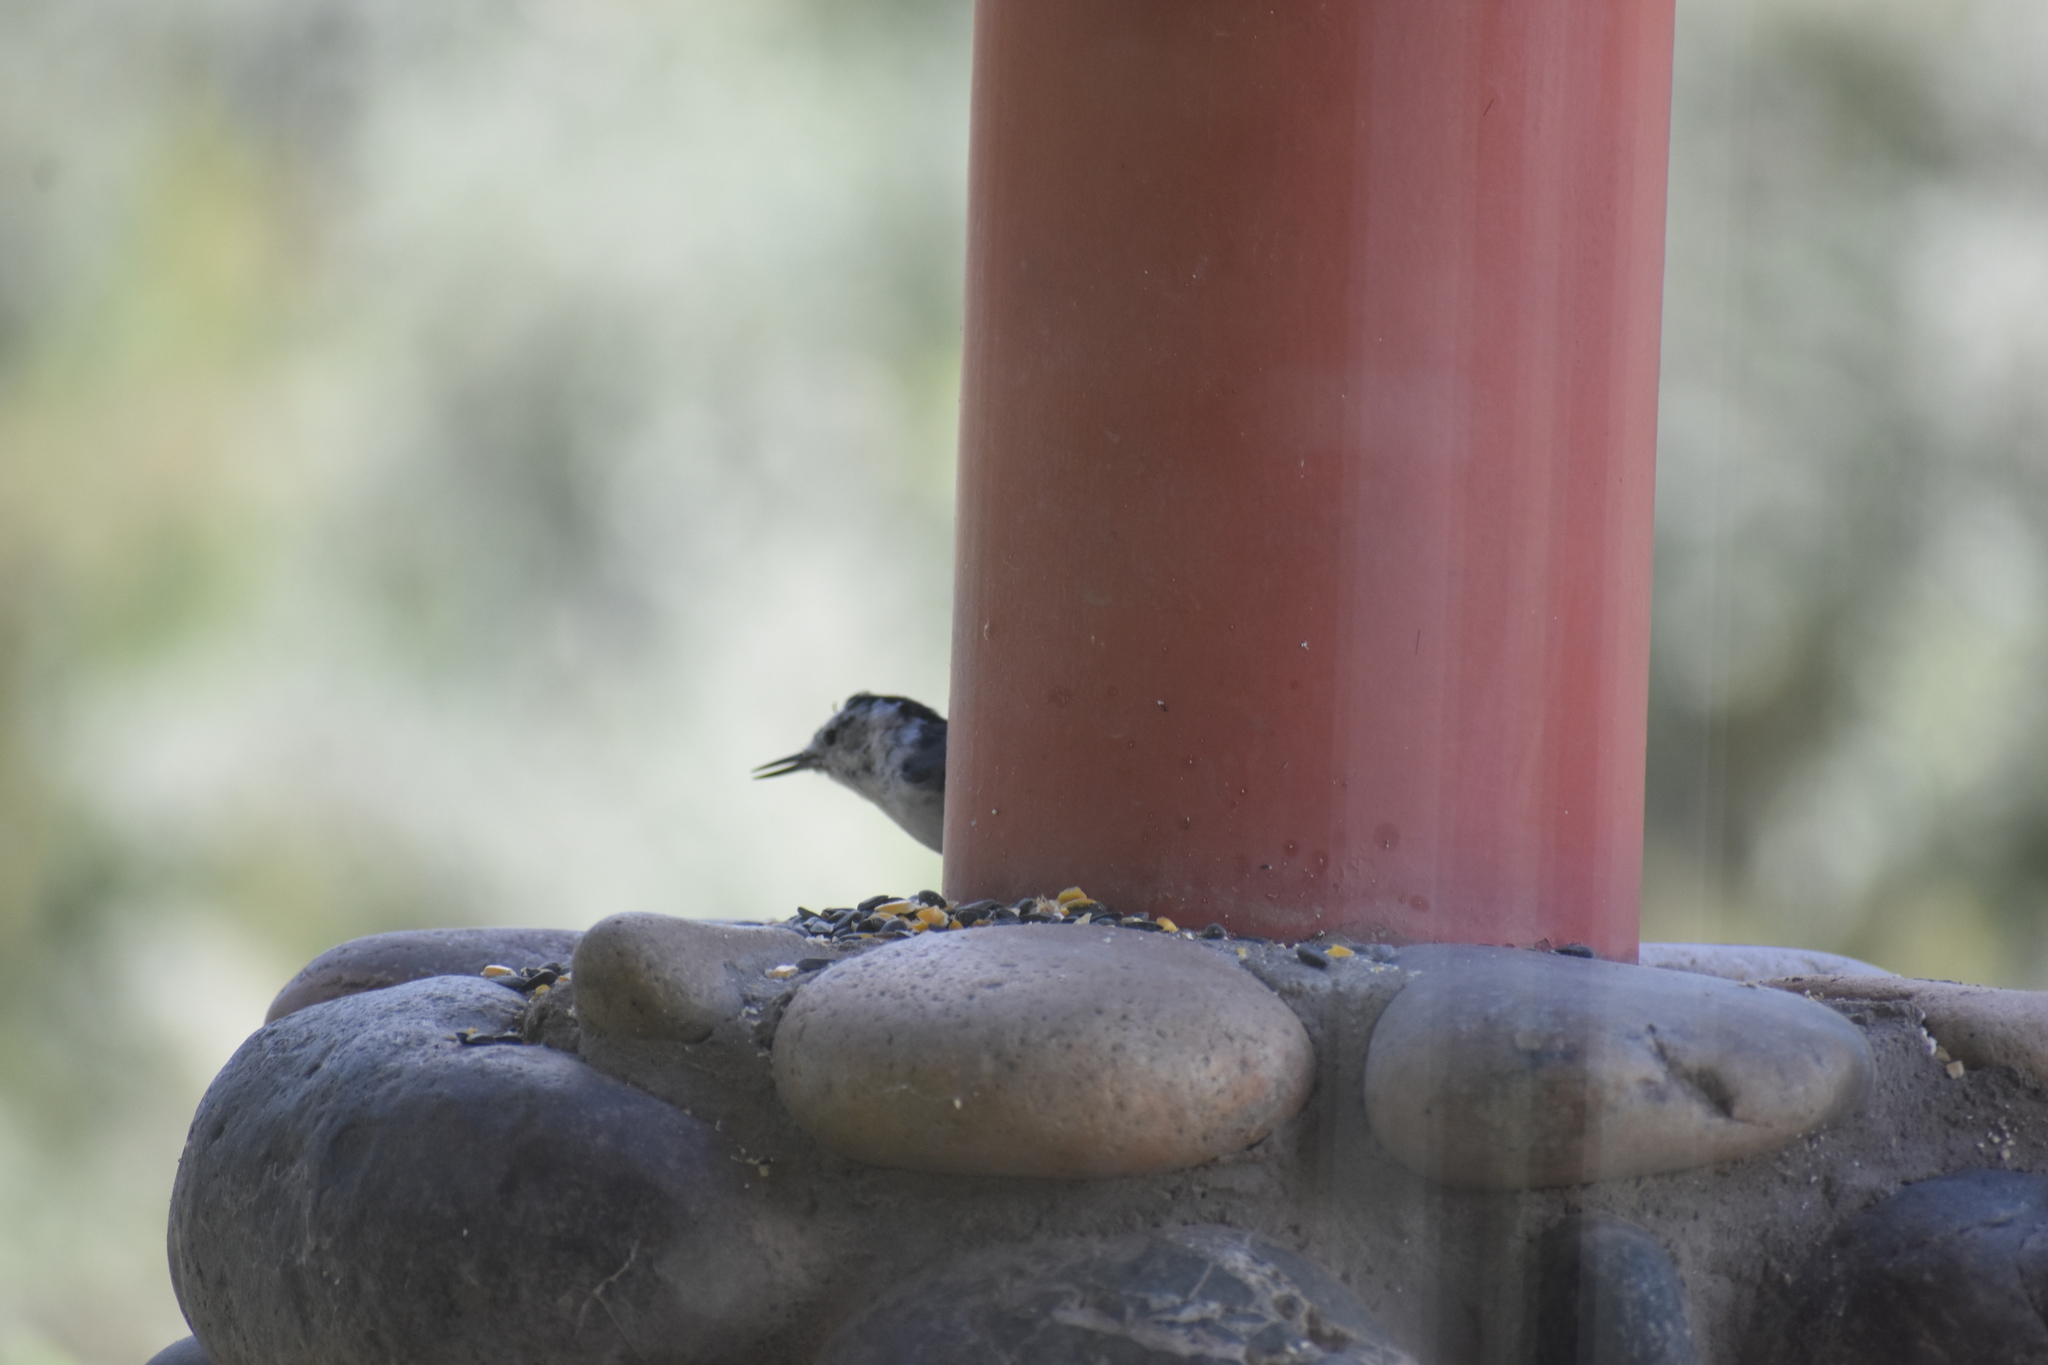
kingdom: Animalia
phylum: Chordata
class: Aves
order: Passeriformes
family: Sittidae
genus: Sitta
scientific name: Sitta carolinensis
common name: White-breasted nuthatch
